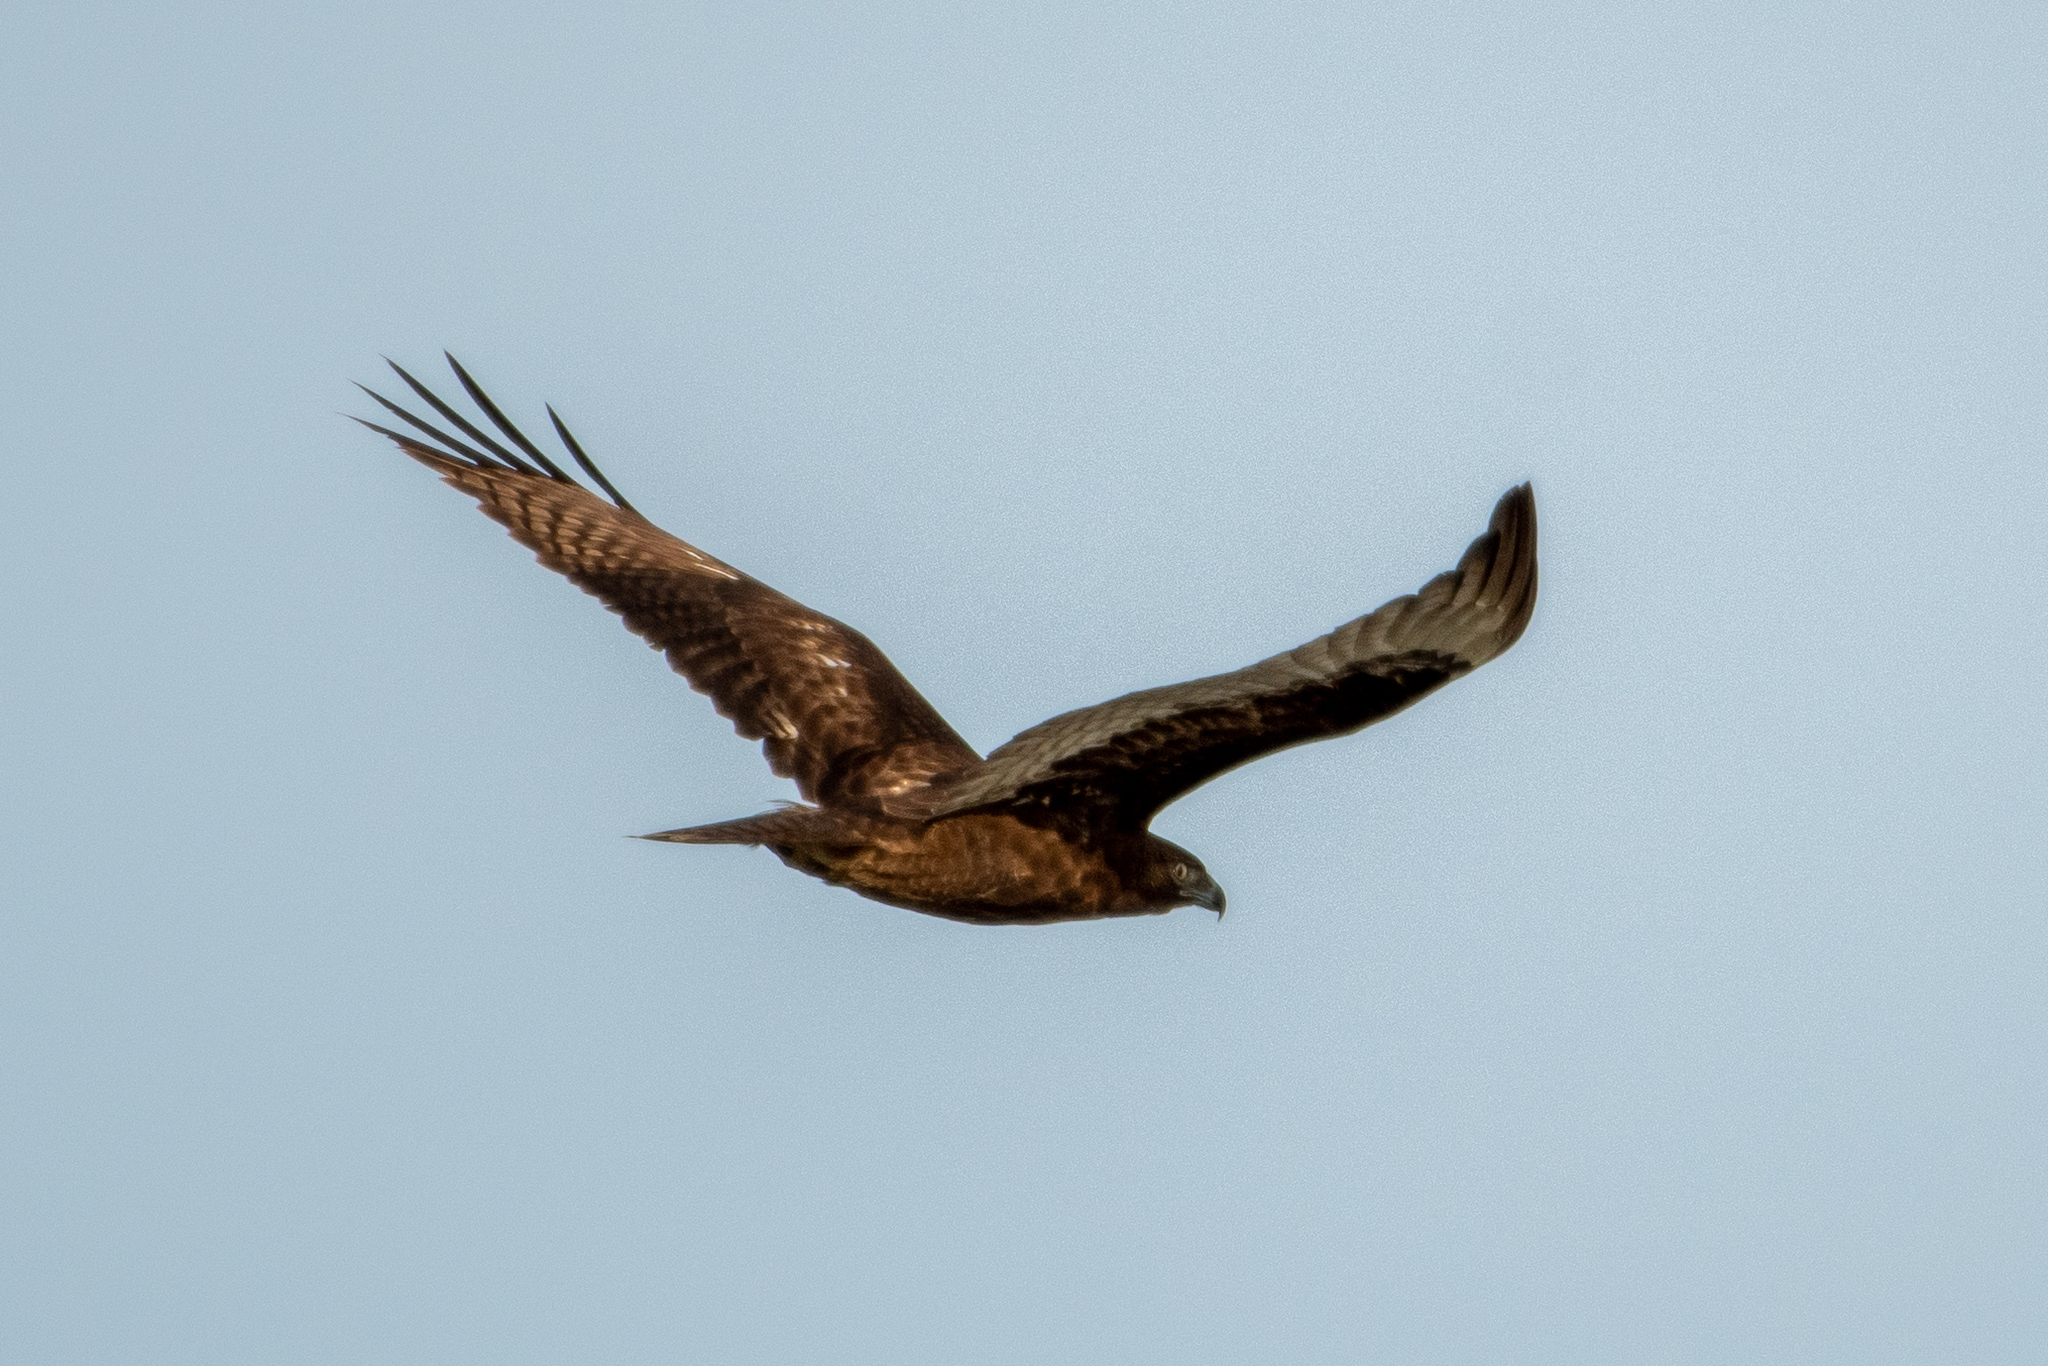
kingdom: Animalia
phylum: Chordata
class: Aves
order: Accipitriformes
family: Accipitridae
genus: Buteo
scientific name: Buteo jamaicensis
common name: Red-tailed hawk
